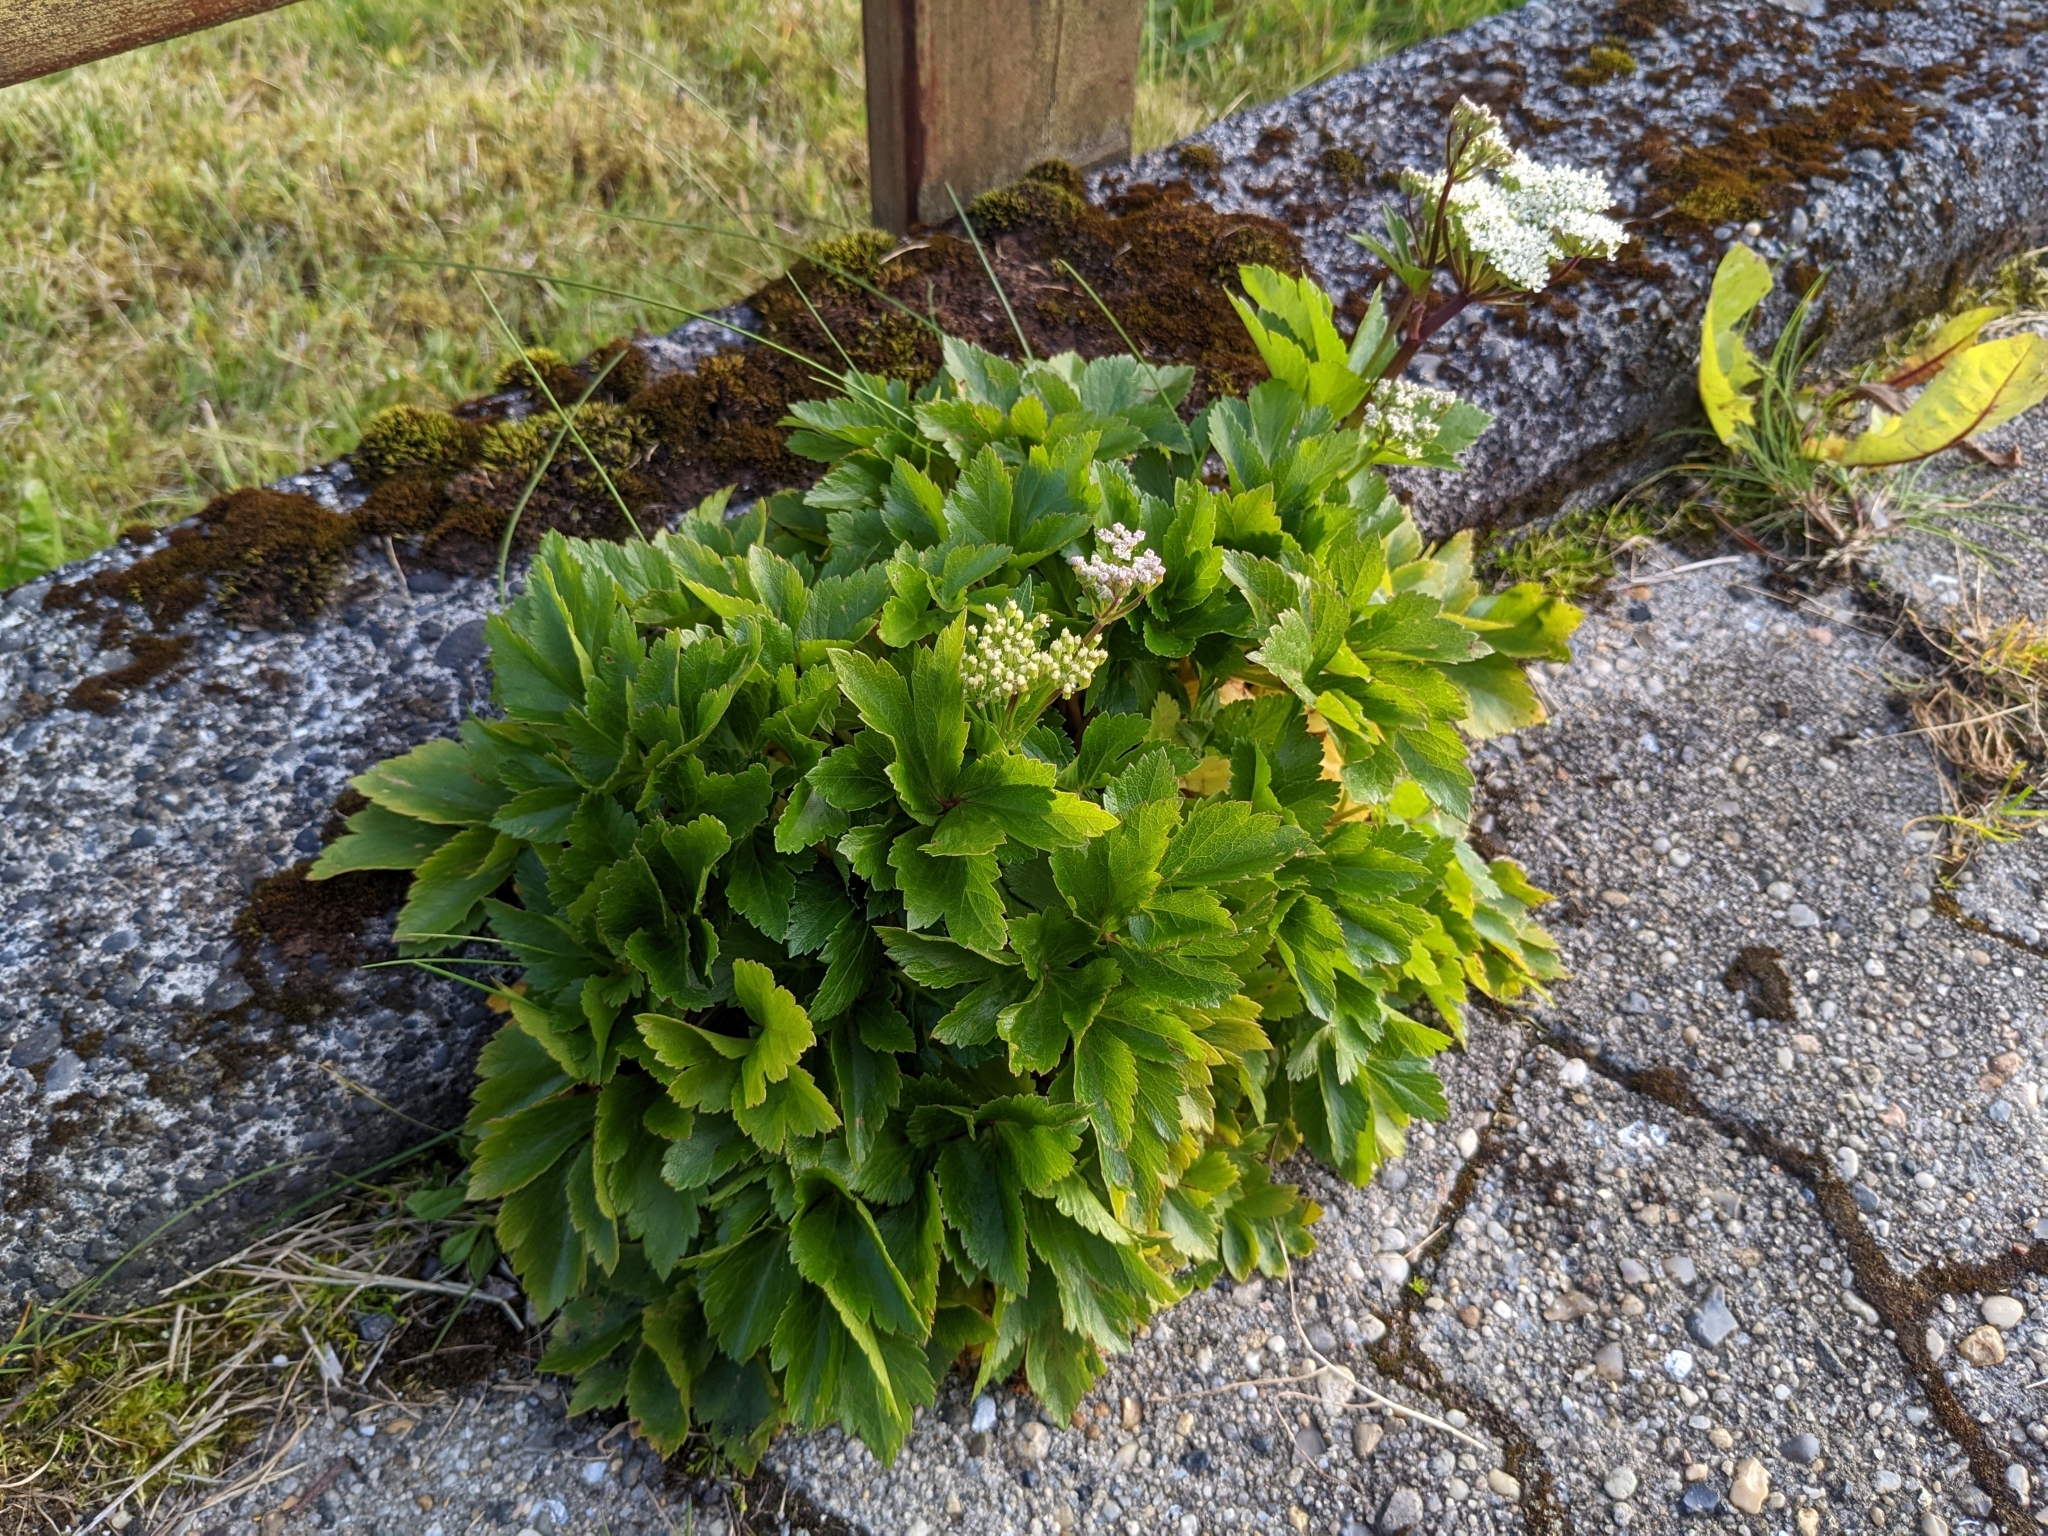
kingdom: Plantae
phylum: Tracheophyta
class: Magnoliopsida
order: Apiales
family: Apiaceae
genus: Ligusticum
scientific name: Ligusticum scothicum
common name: Beach lovage
